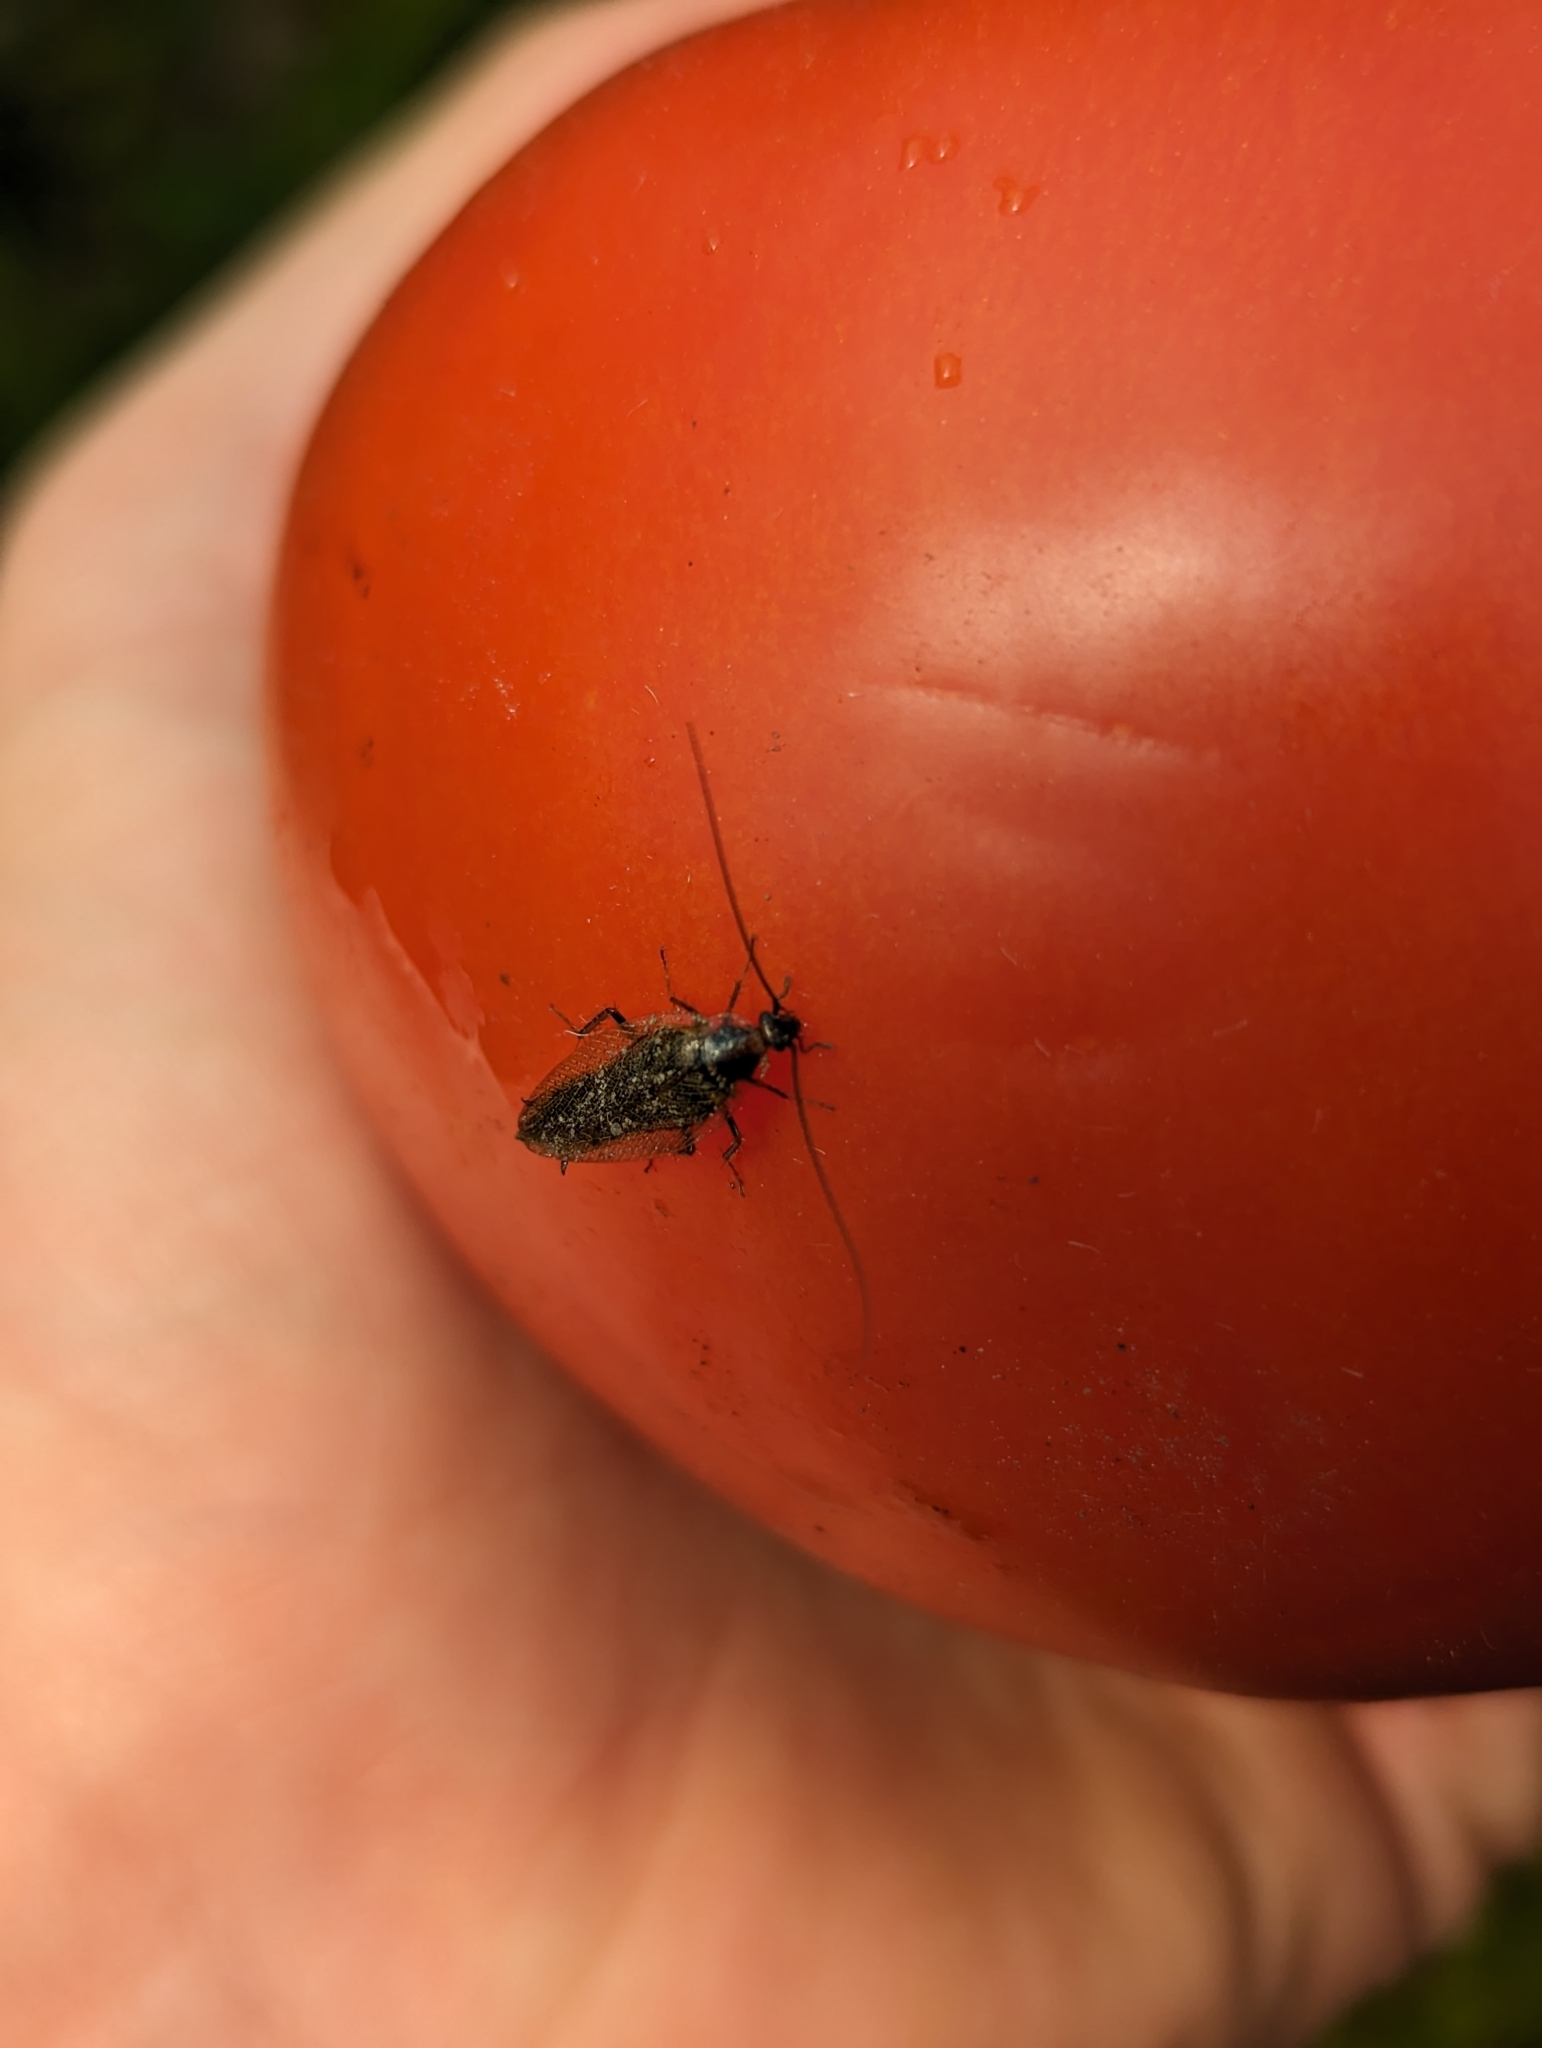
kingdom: Animalia
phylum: Arthropoda
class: Insecta
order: Blattodea
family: Ectobiidae
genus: Ectobius
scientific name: Ectobius lapponicus
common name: Dusky cockroach
